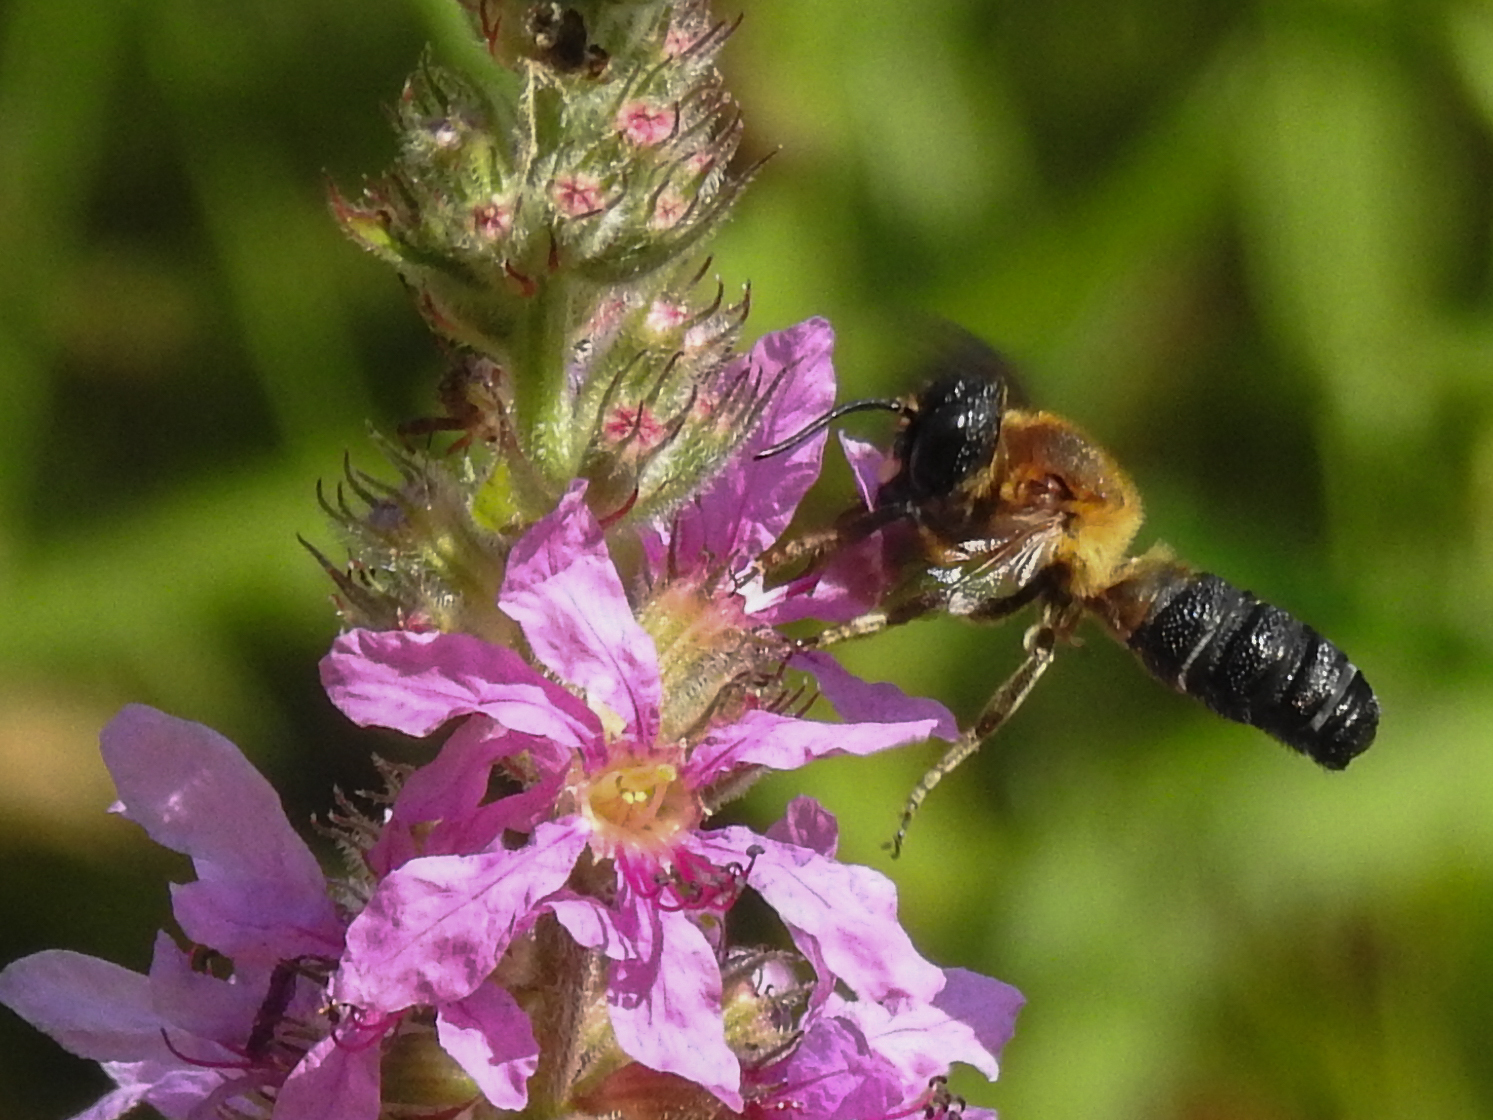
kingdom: Animalia
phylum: Arthropoda
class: Insecta
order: Hymenoptera
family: Megachilidae
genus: Megachile
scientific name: Megachile sculpturalis
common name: Sculptured resin bee
